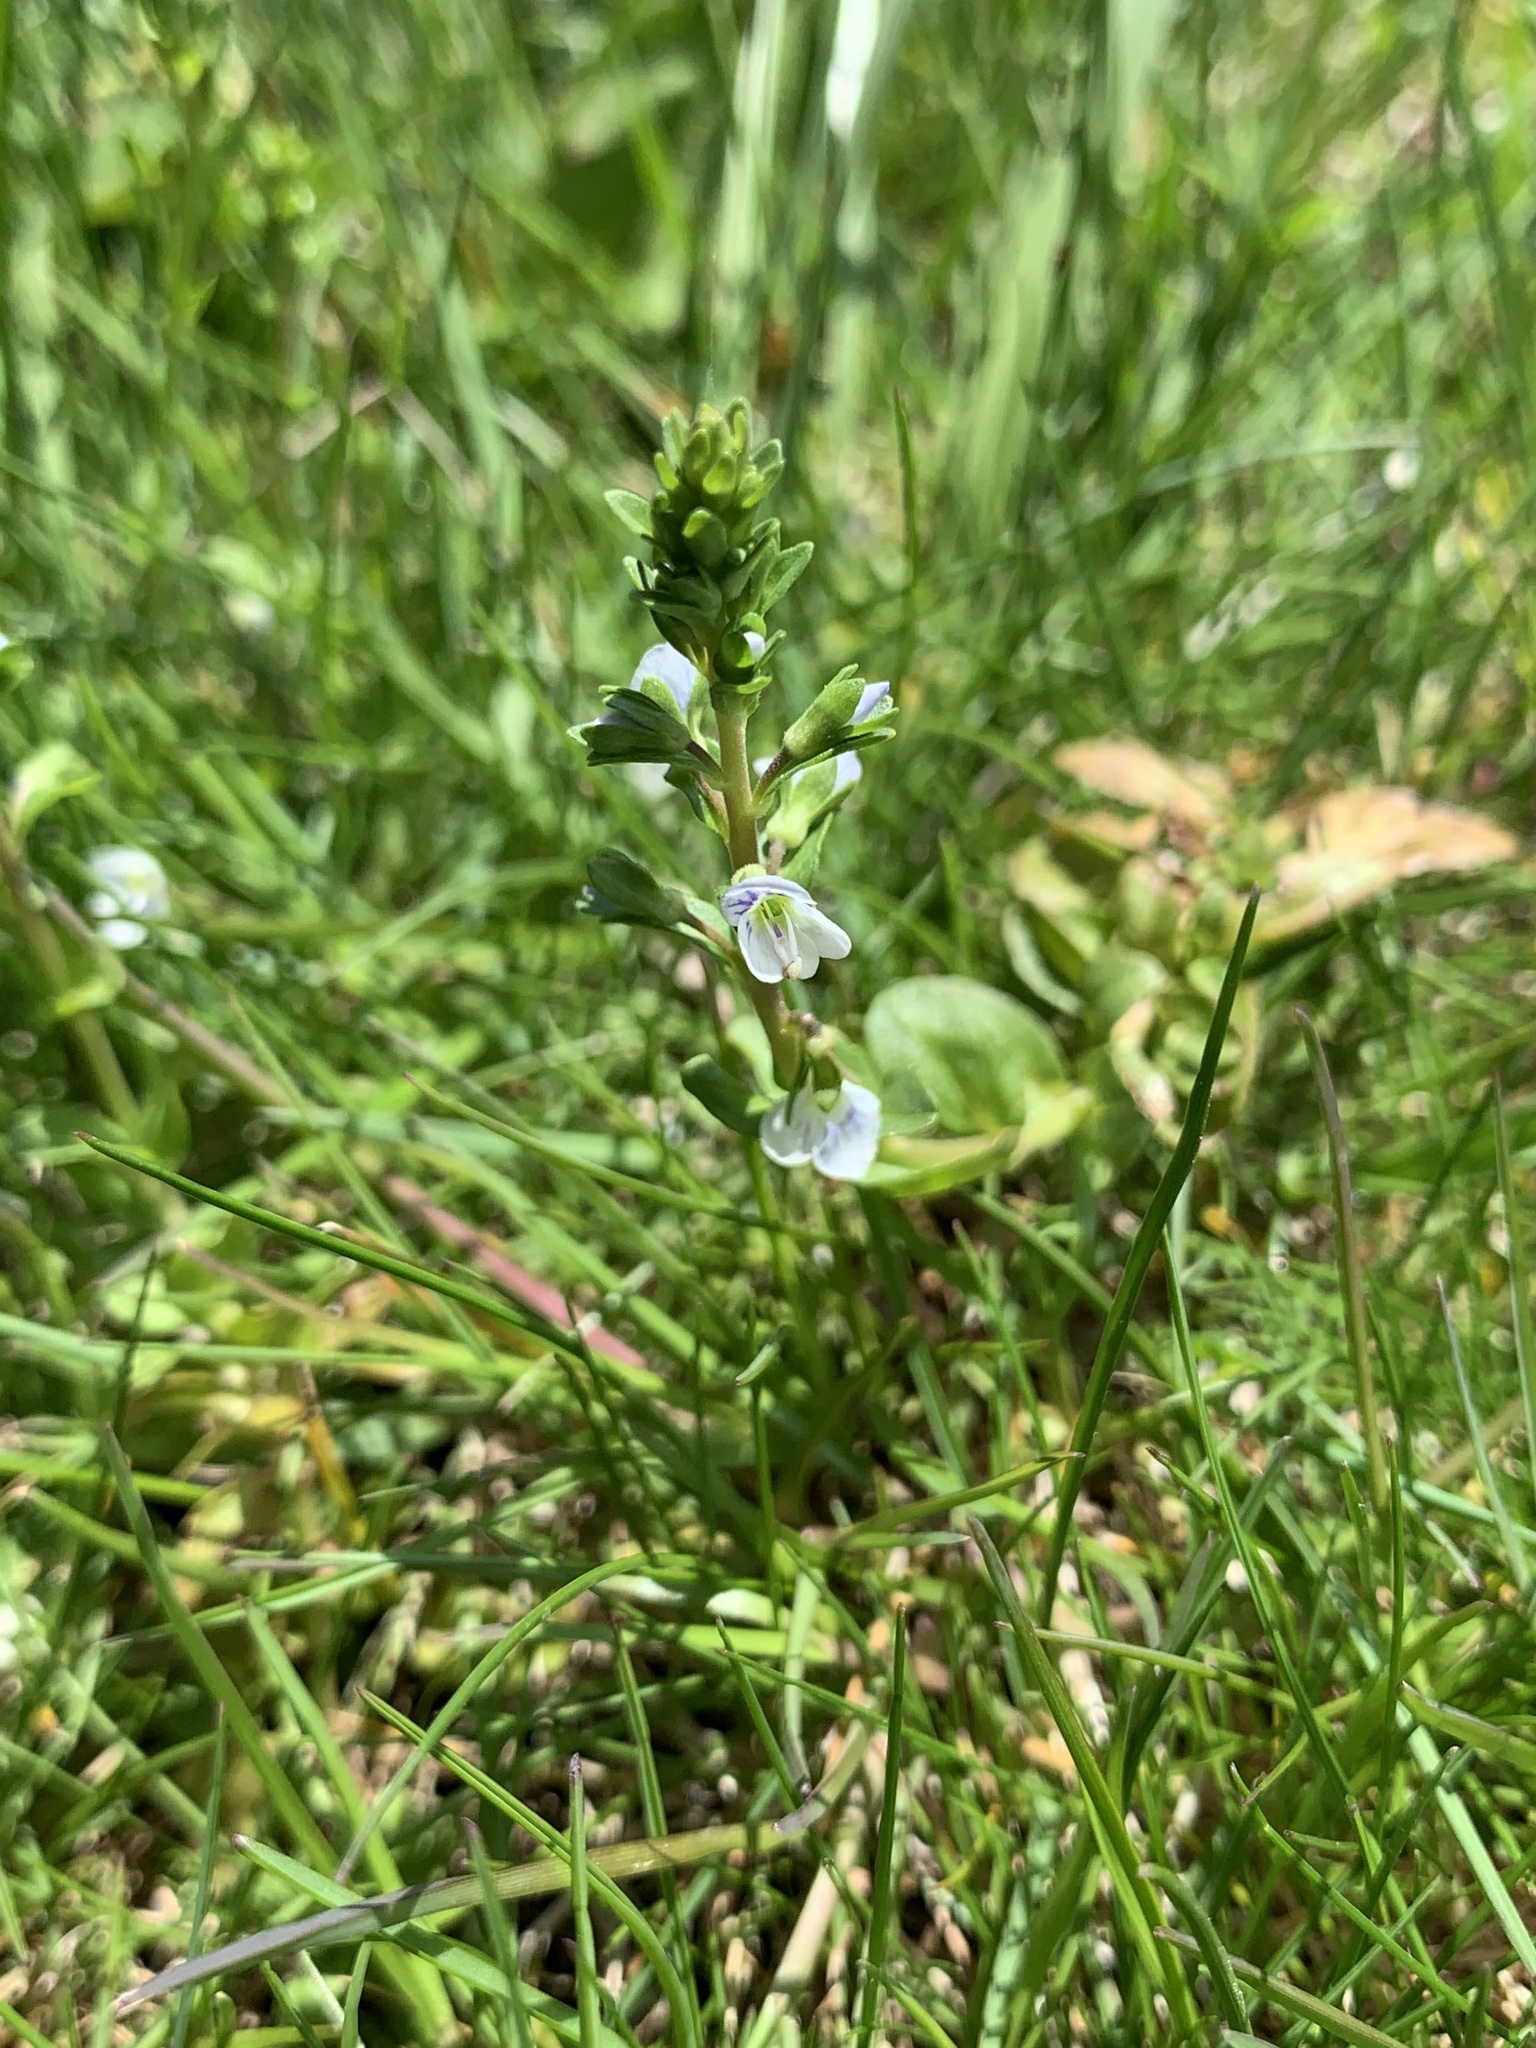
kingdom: Plantae
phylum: Tracheophyta
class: Magnoliopsida
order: Lamiales
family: Plantaginaceae
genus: Veronica
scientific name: Veronica serpyllifolia
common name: Thyme-leaved speedwell
